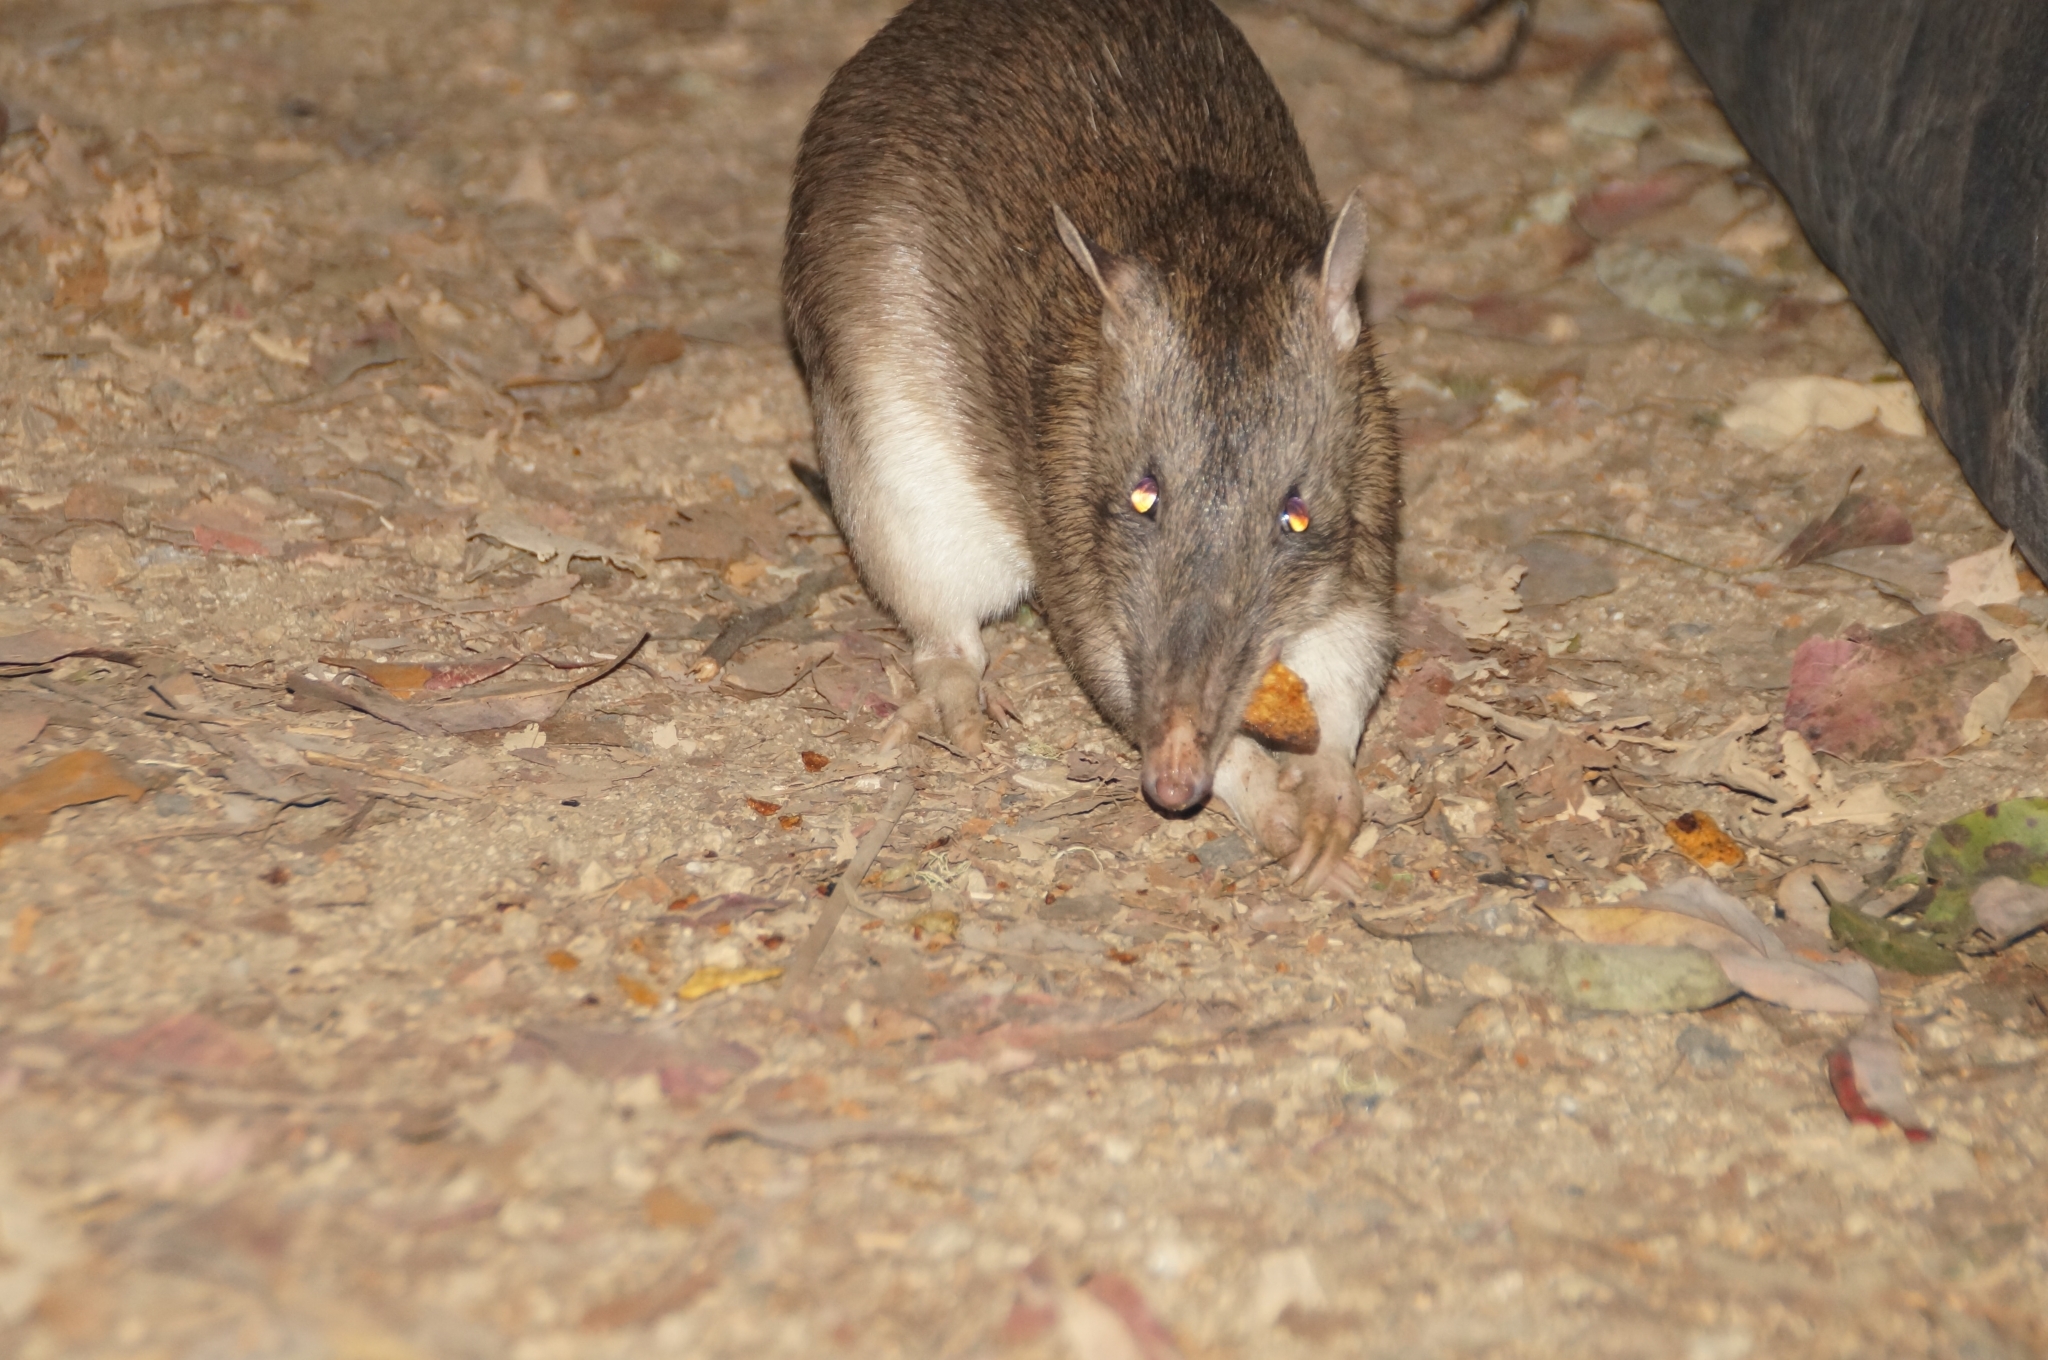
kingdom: Animalia
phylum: Chordata
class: Mammalia
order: Peramelemorphia
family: Peramelidae
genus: Perameles
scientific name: Perameles nasuta
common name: Long-nosed bandicoot
